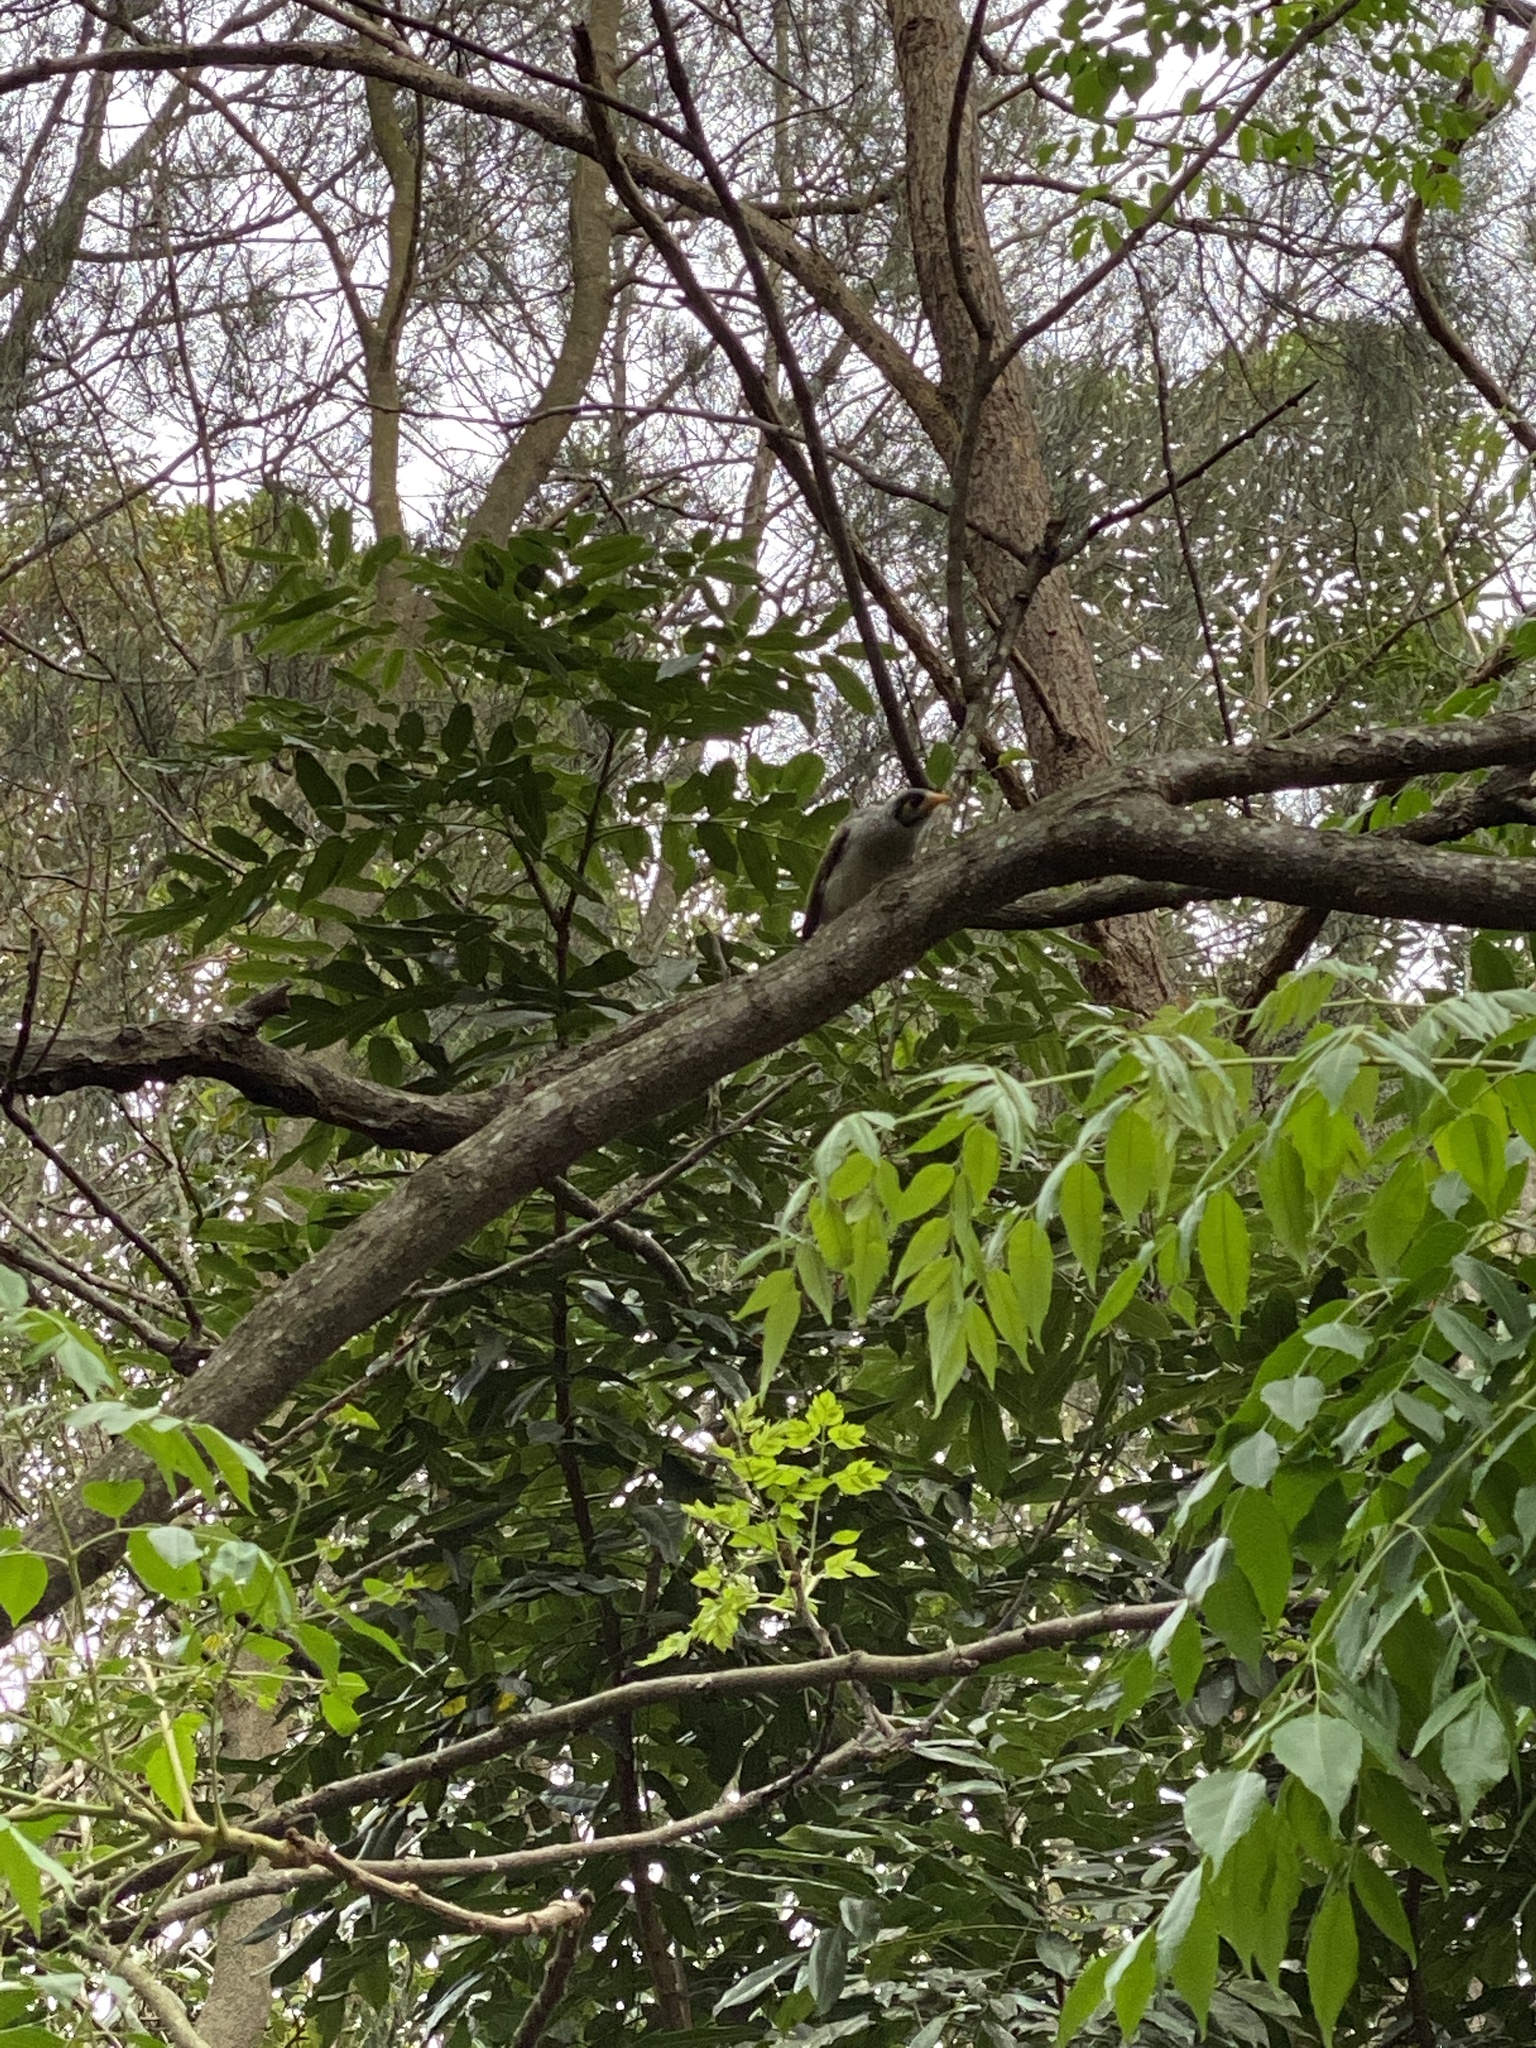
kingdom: Animalia
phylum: Chordata
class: Aves
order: Passeriformes
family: Meliphagidae
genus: Manorina
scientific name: Manorina melanocephala
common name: Noisy miner
